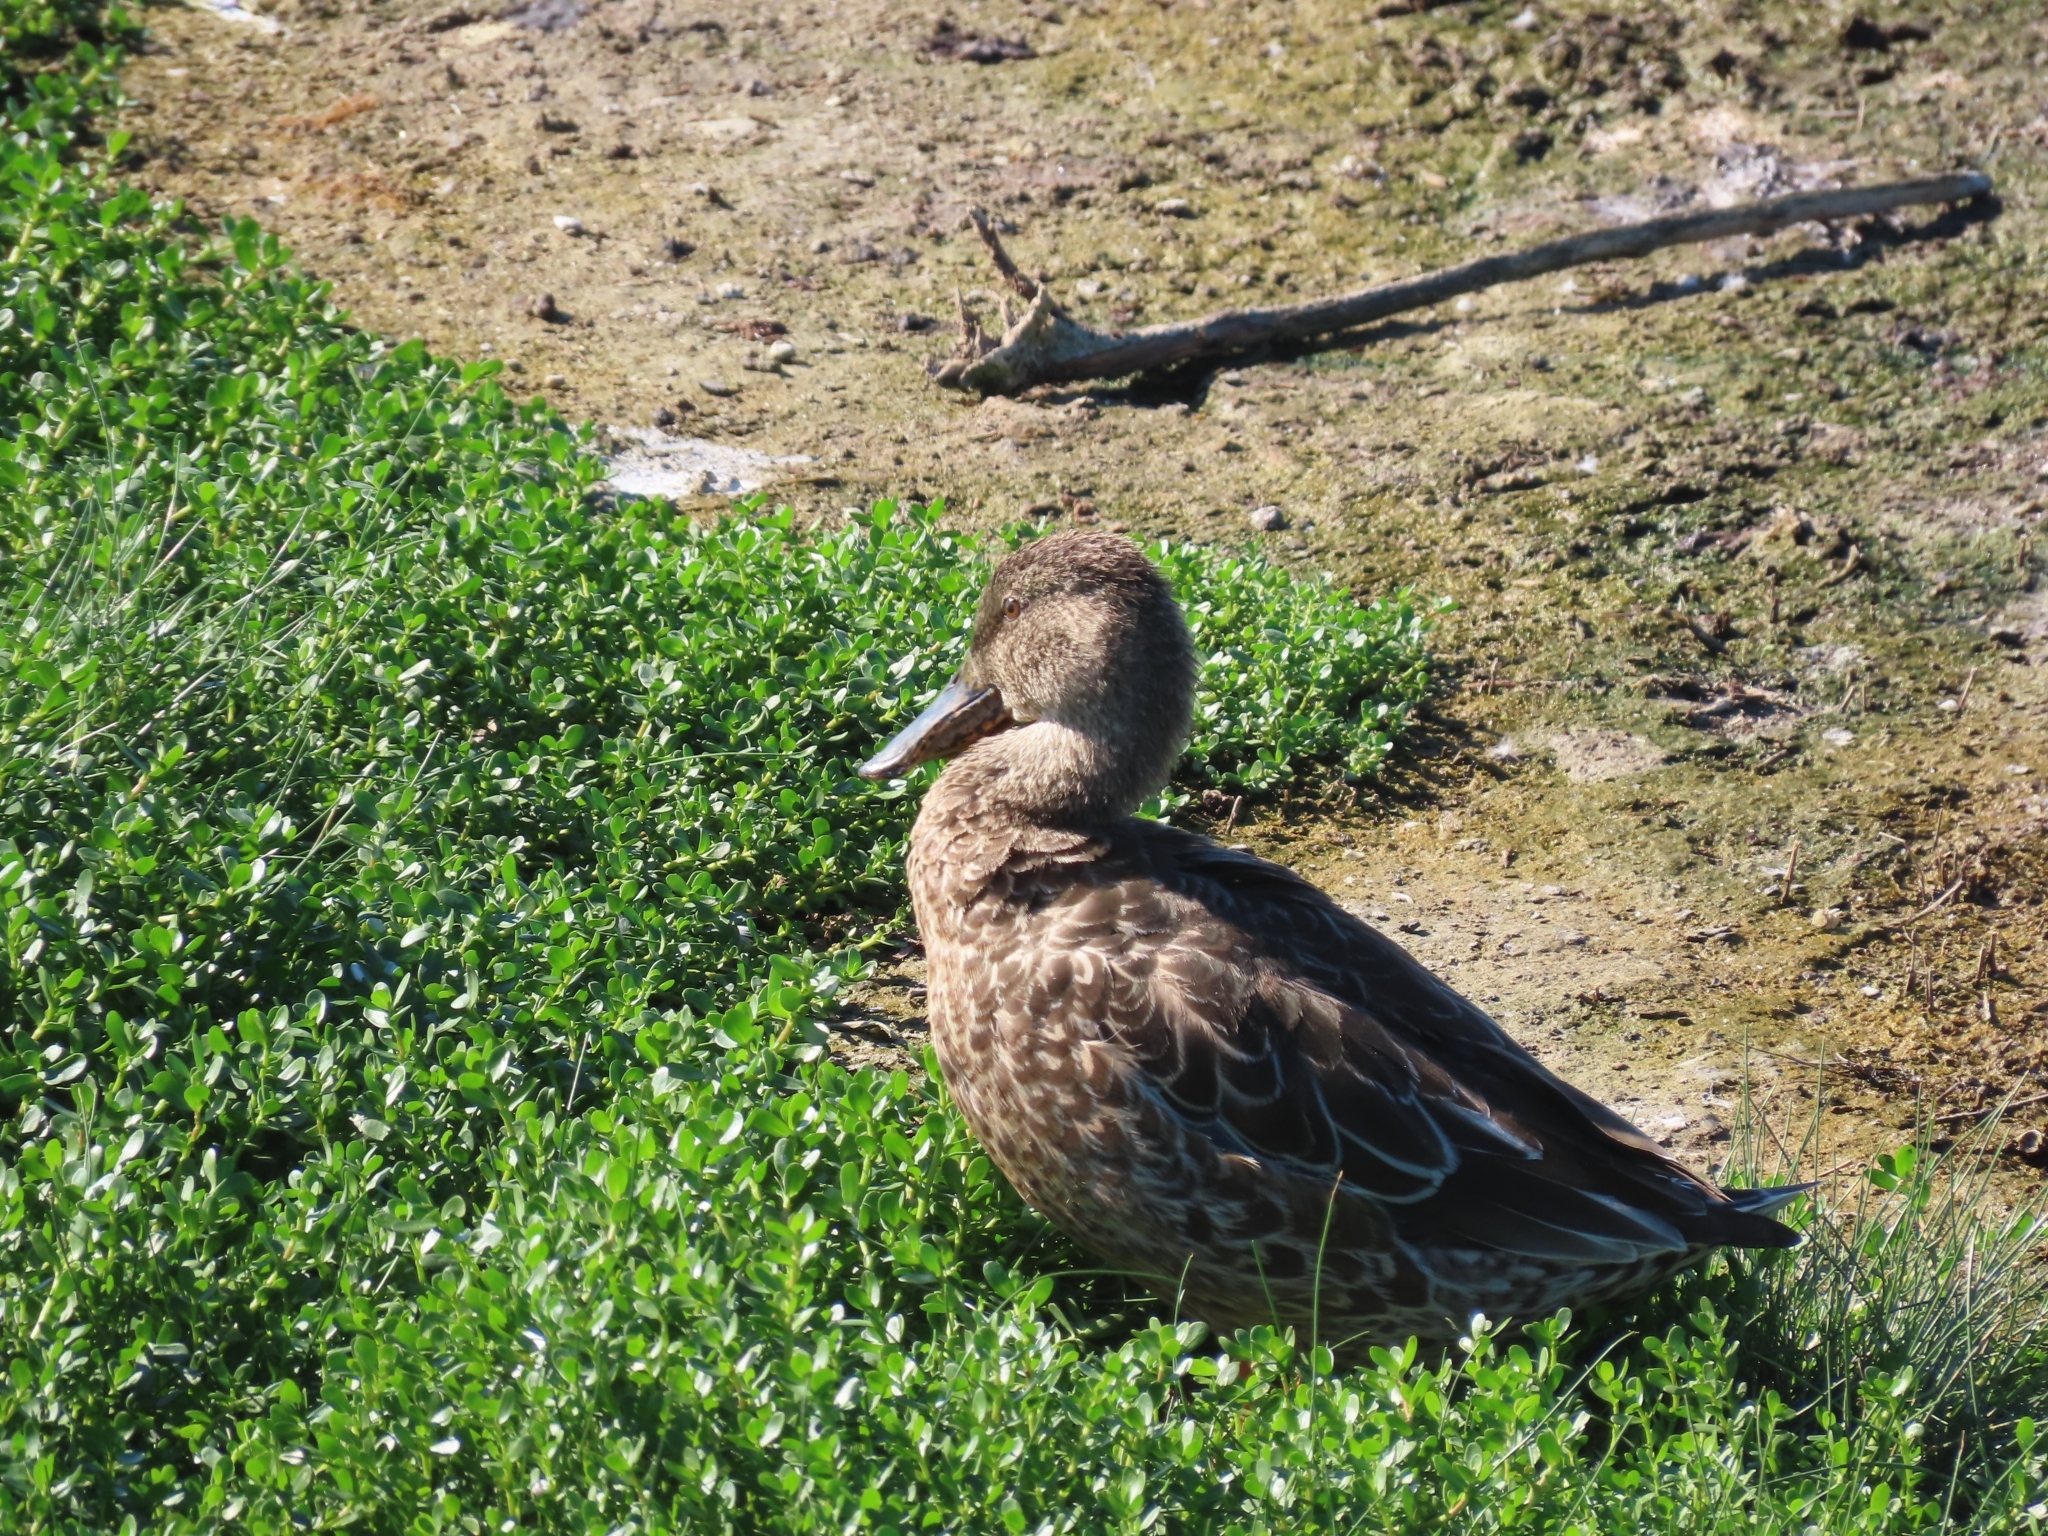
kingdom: Animalia
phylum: Chordata
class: Aves
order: Anseriformes
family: Anatidae
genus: Spatula
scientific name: Spatula clypeata
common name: Northern shoveler
